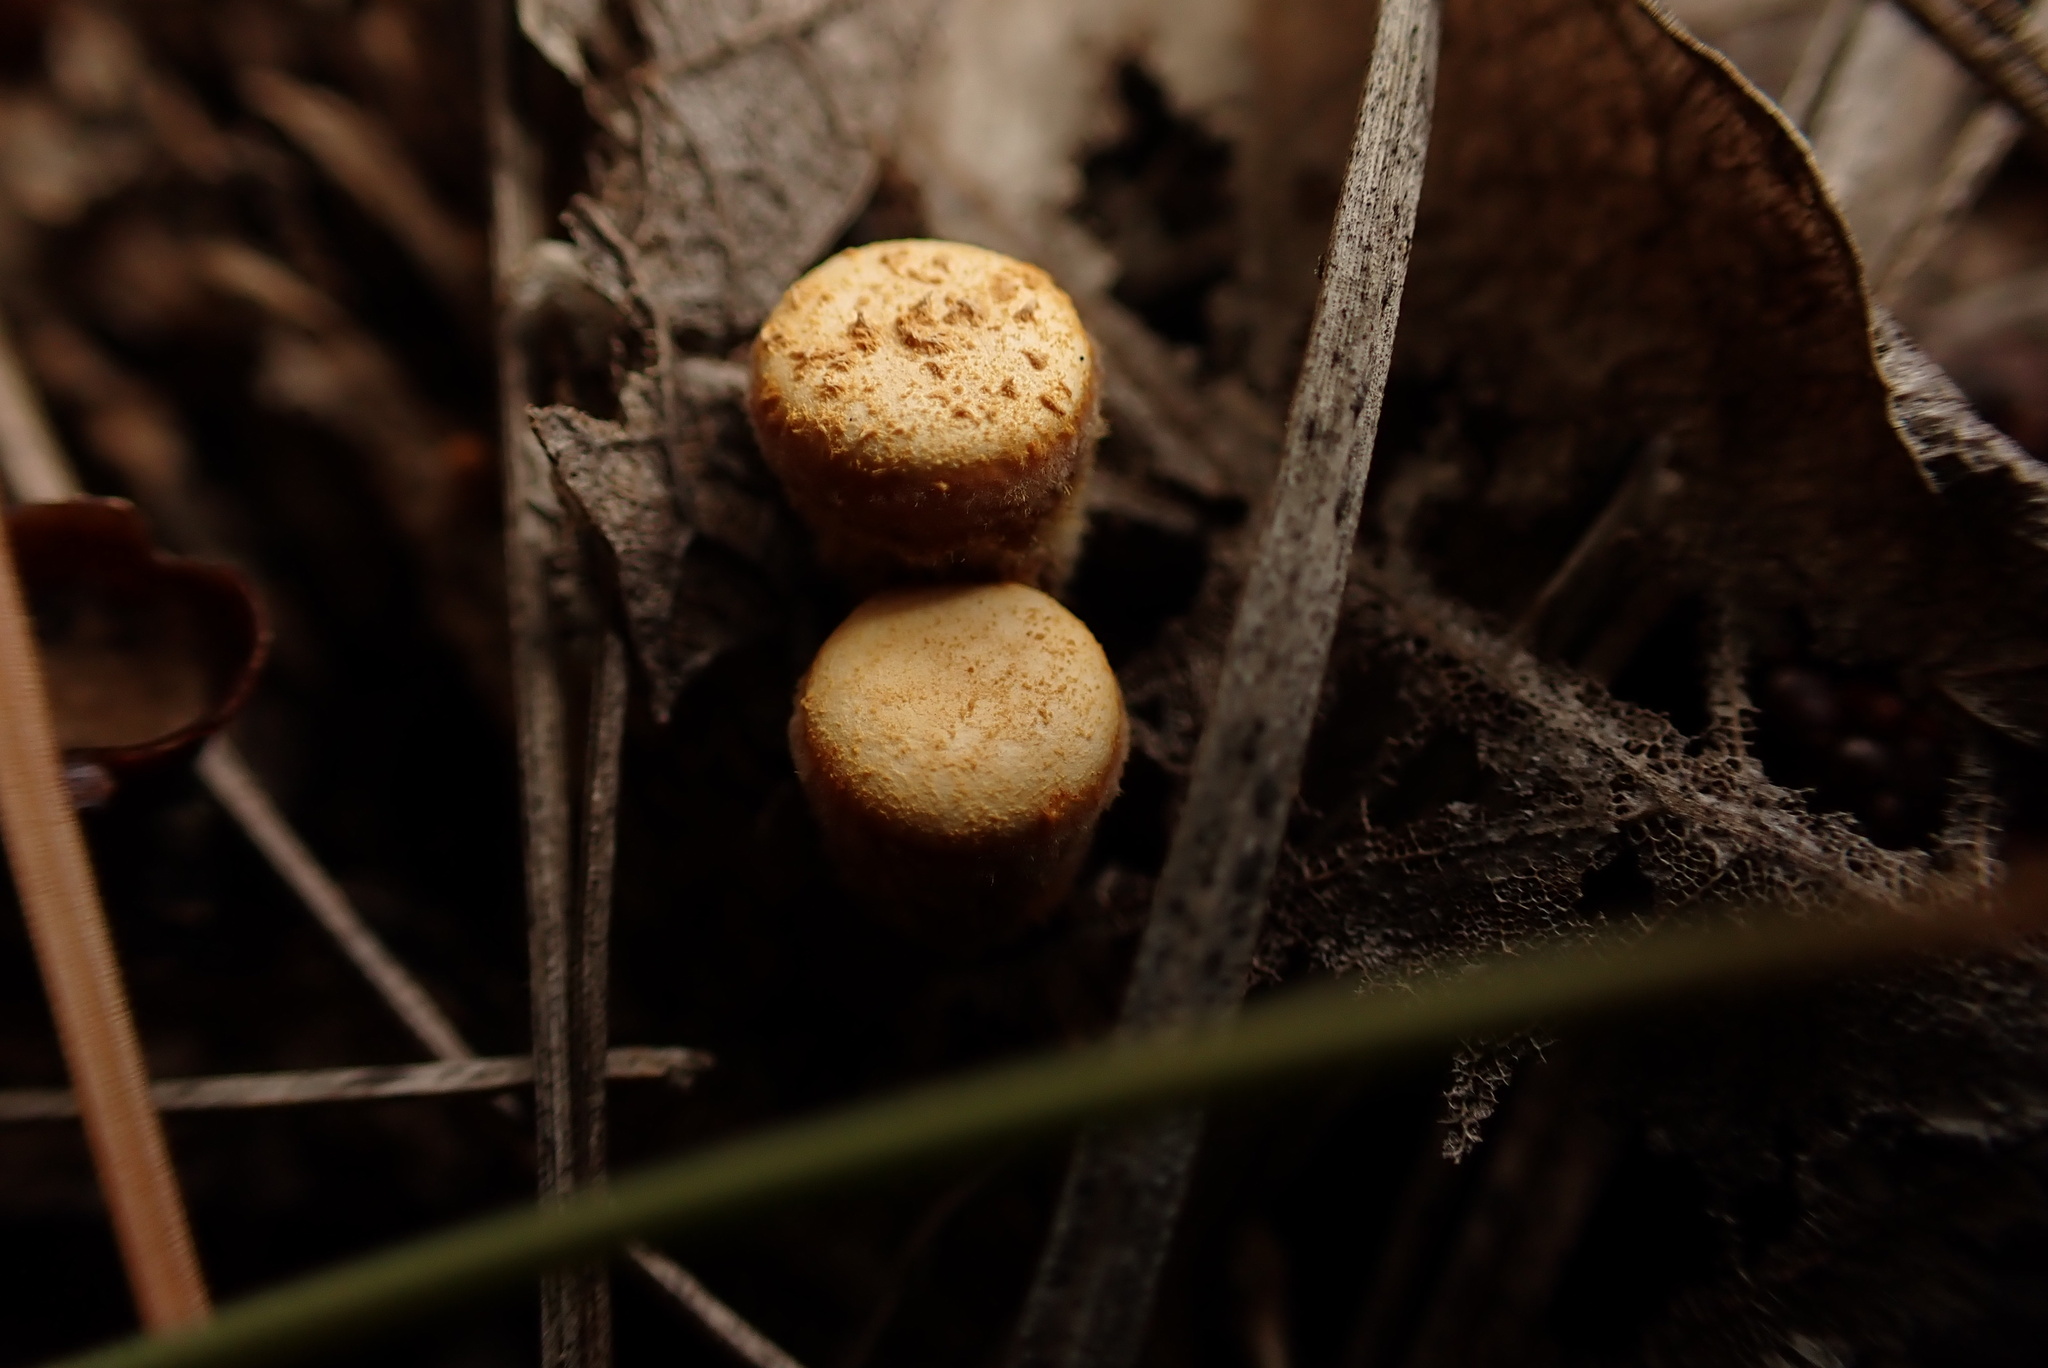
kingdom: Fungi
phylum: Basidiomycota
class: Agaricomycetes
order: Agaricales
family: Nidulariaceae
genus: Crucibulum
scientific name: Crucibulum cyathiforme
